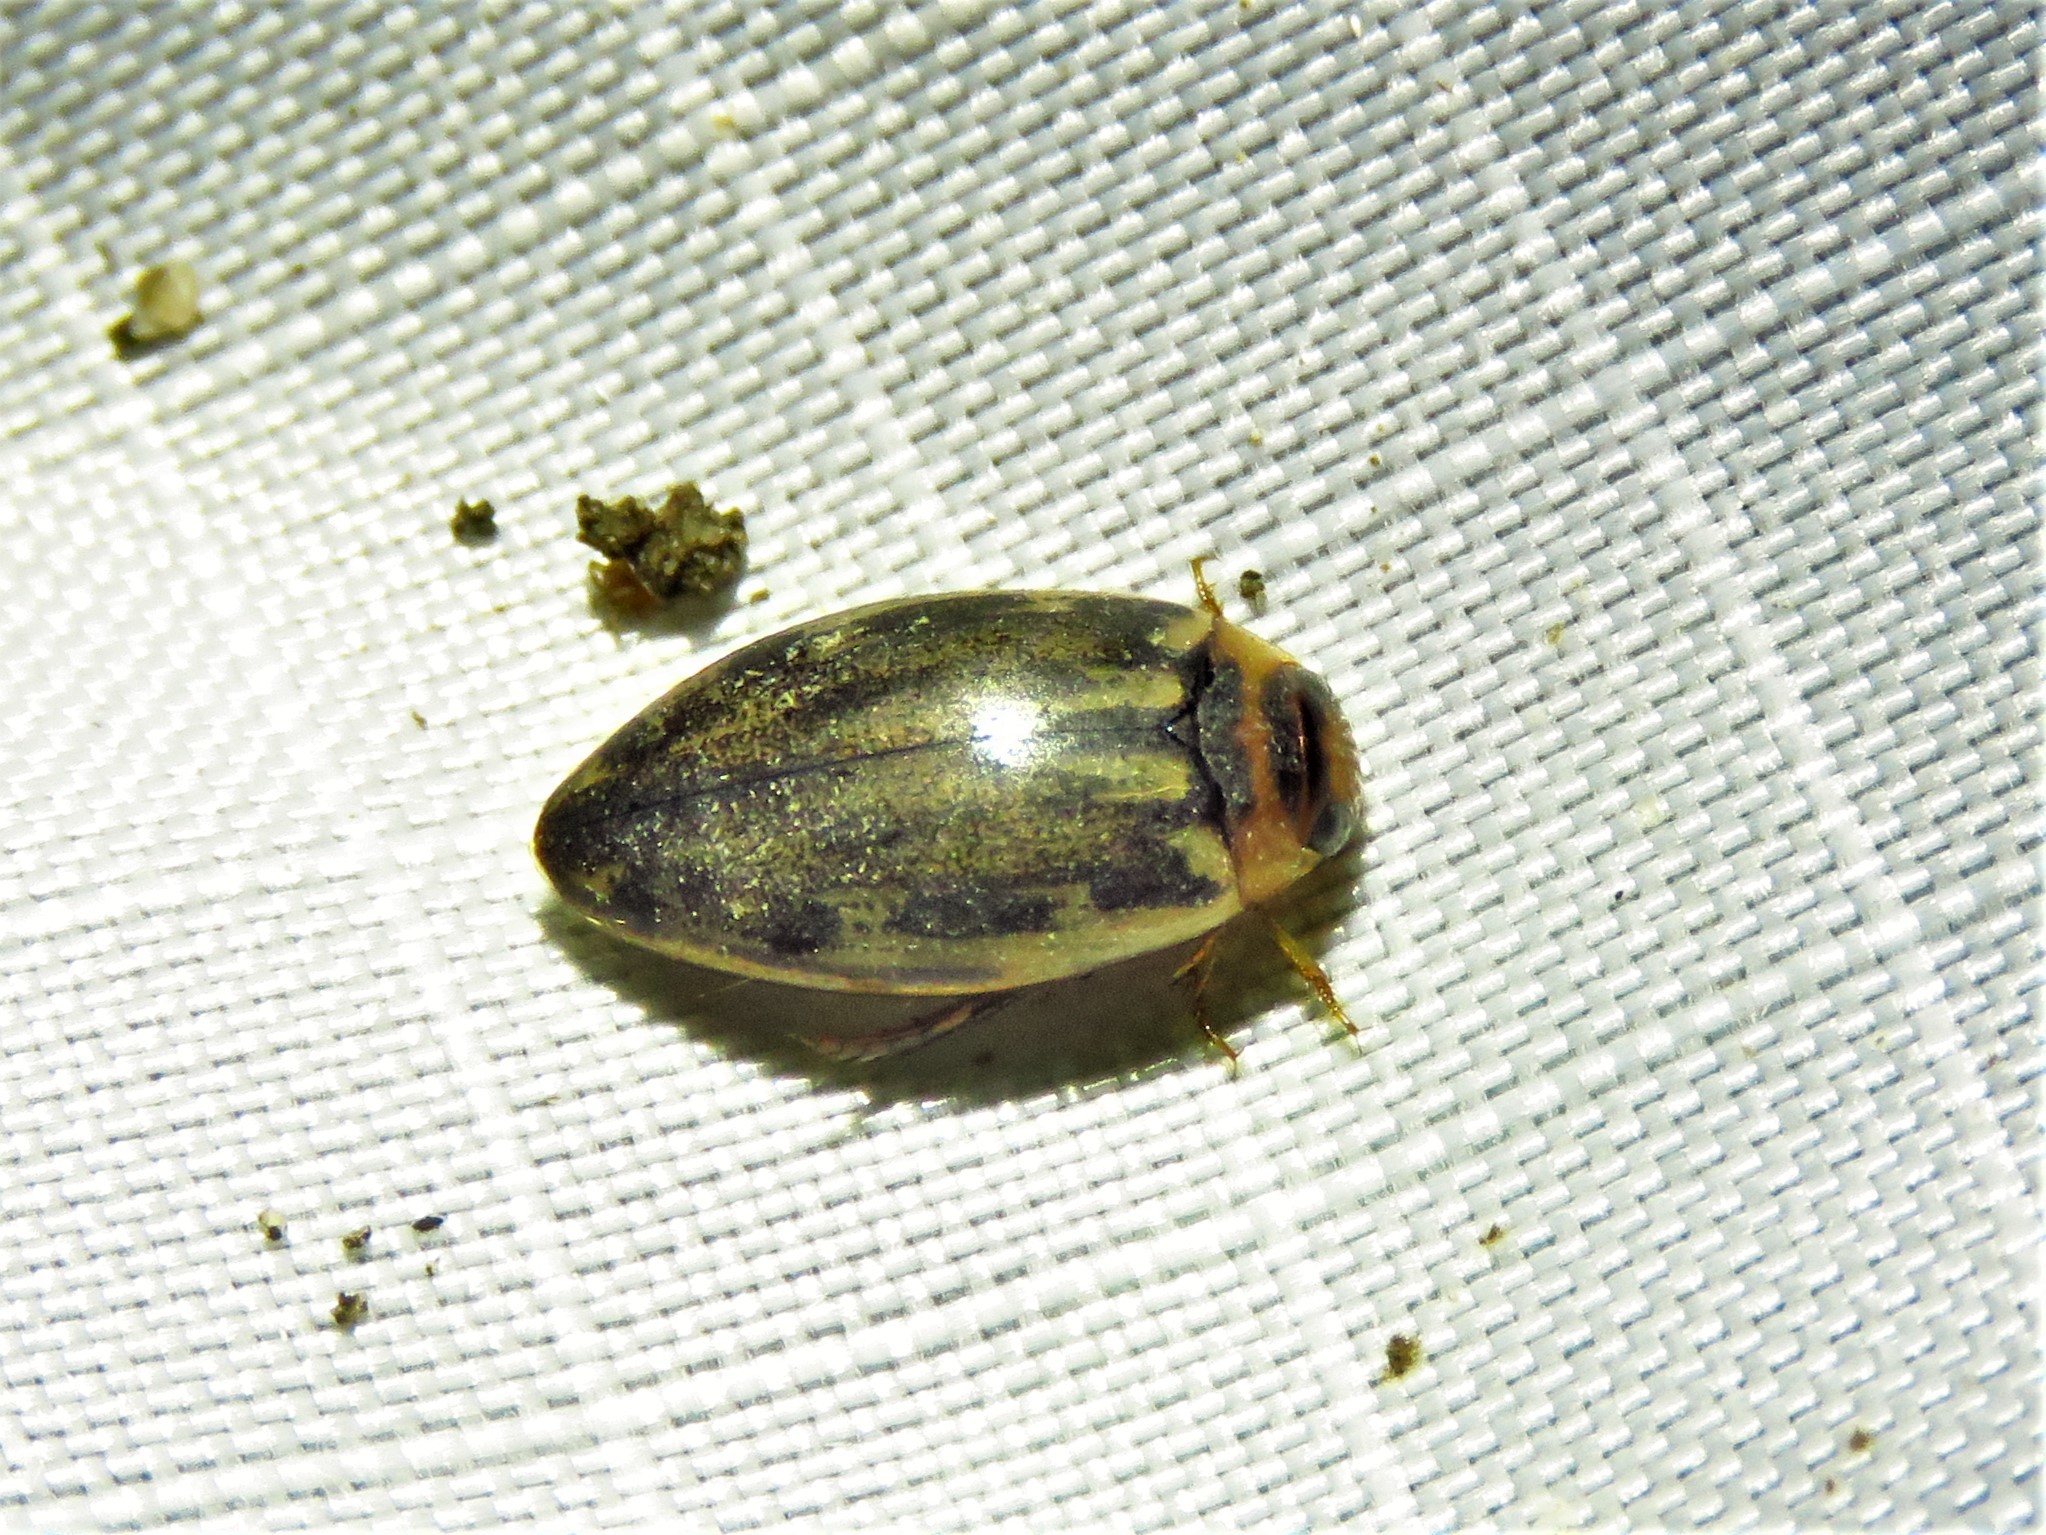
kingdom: Animalia
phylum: Arthropoda
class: Insecta
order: Coleoptera
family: Dytiscidae
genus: Coptotomus
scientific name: Coptotomus venustus
